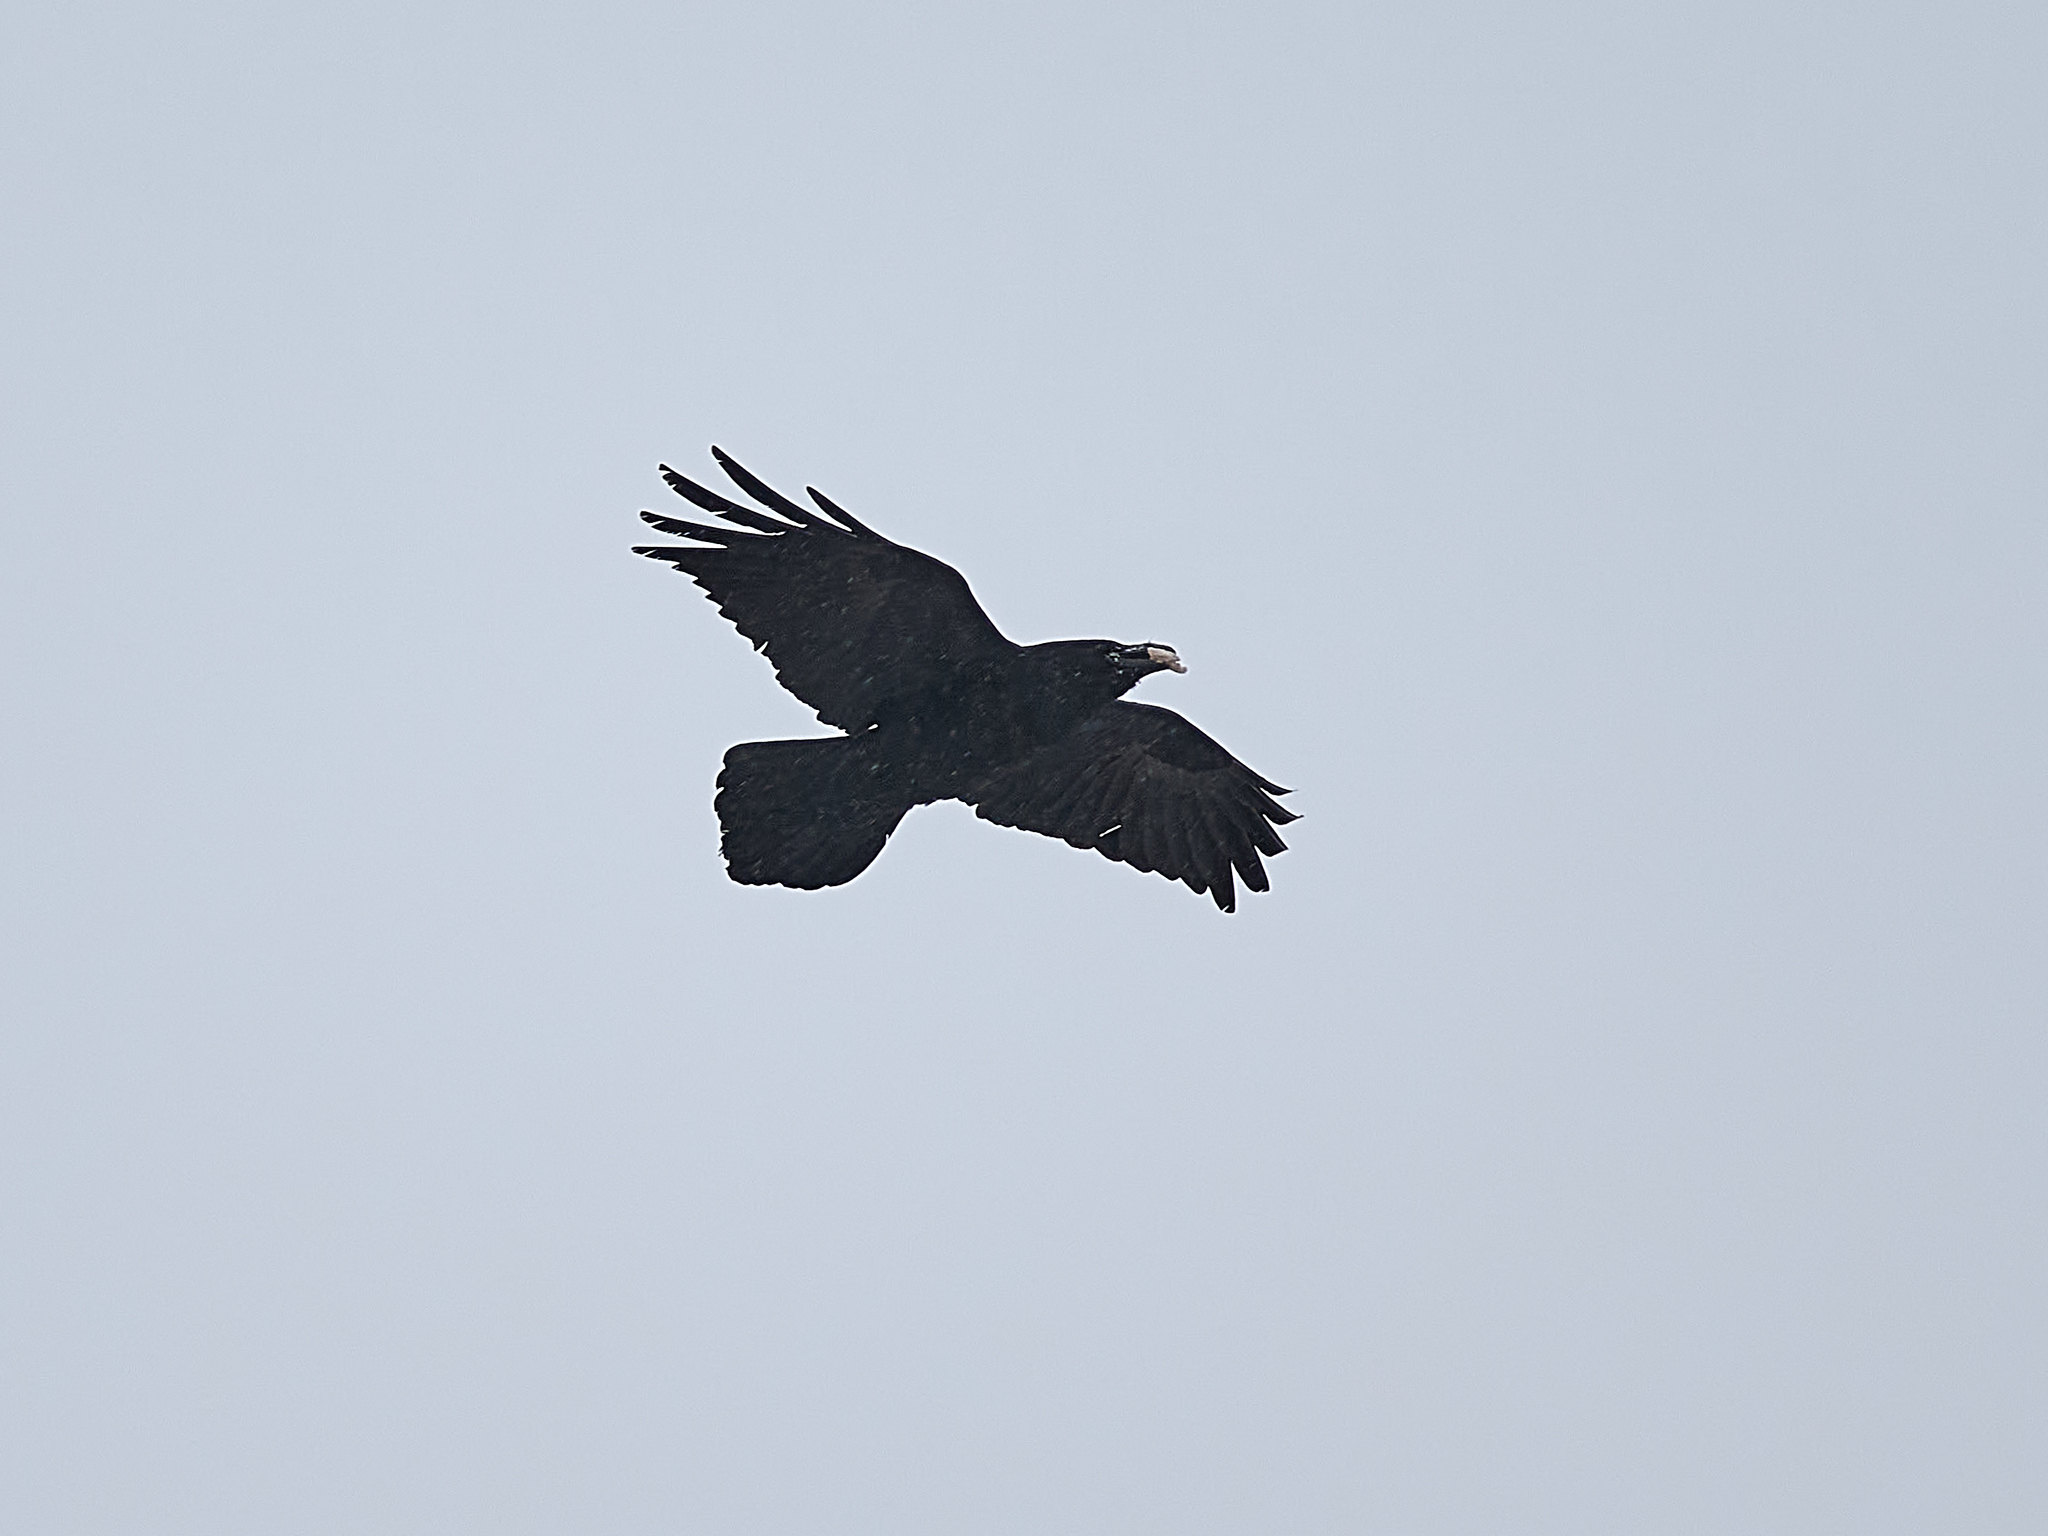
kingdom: Animalia
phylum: Chordata
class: Aves
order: Passeriformes
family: Corvidae
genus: Corvus
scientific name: Corvus corax
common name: Common raven
